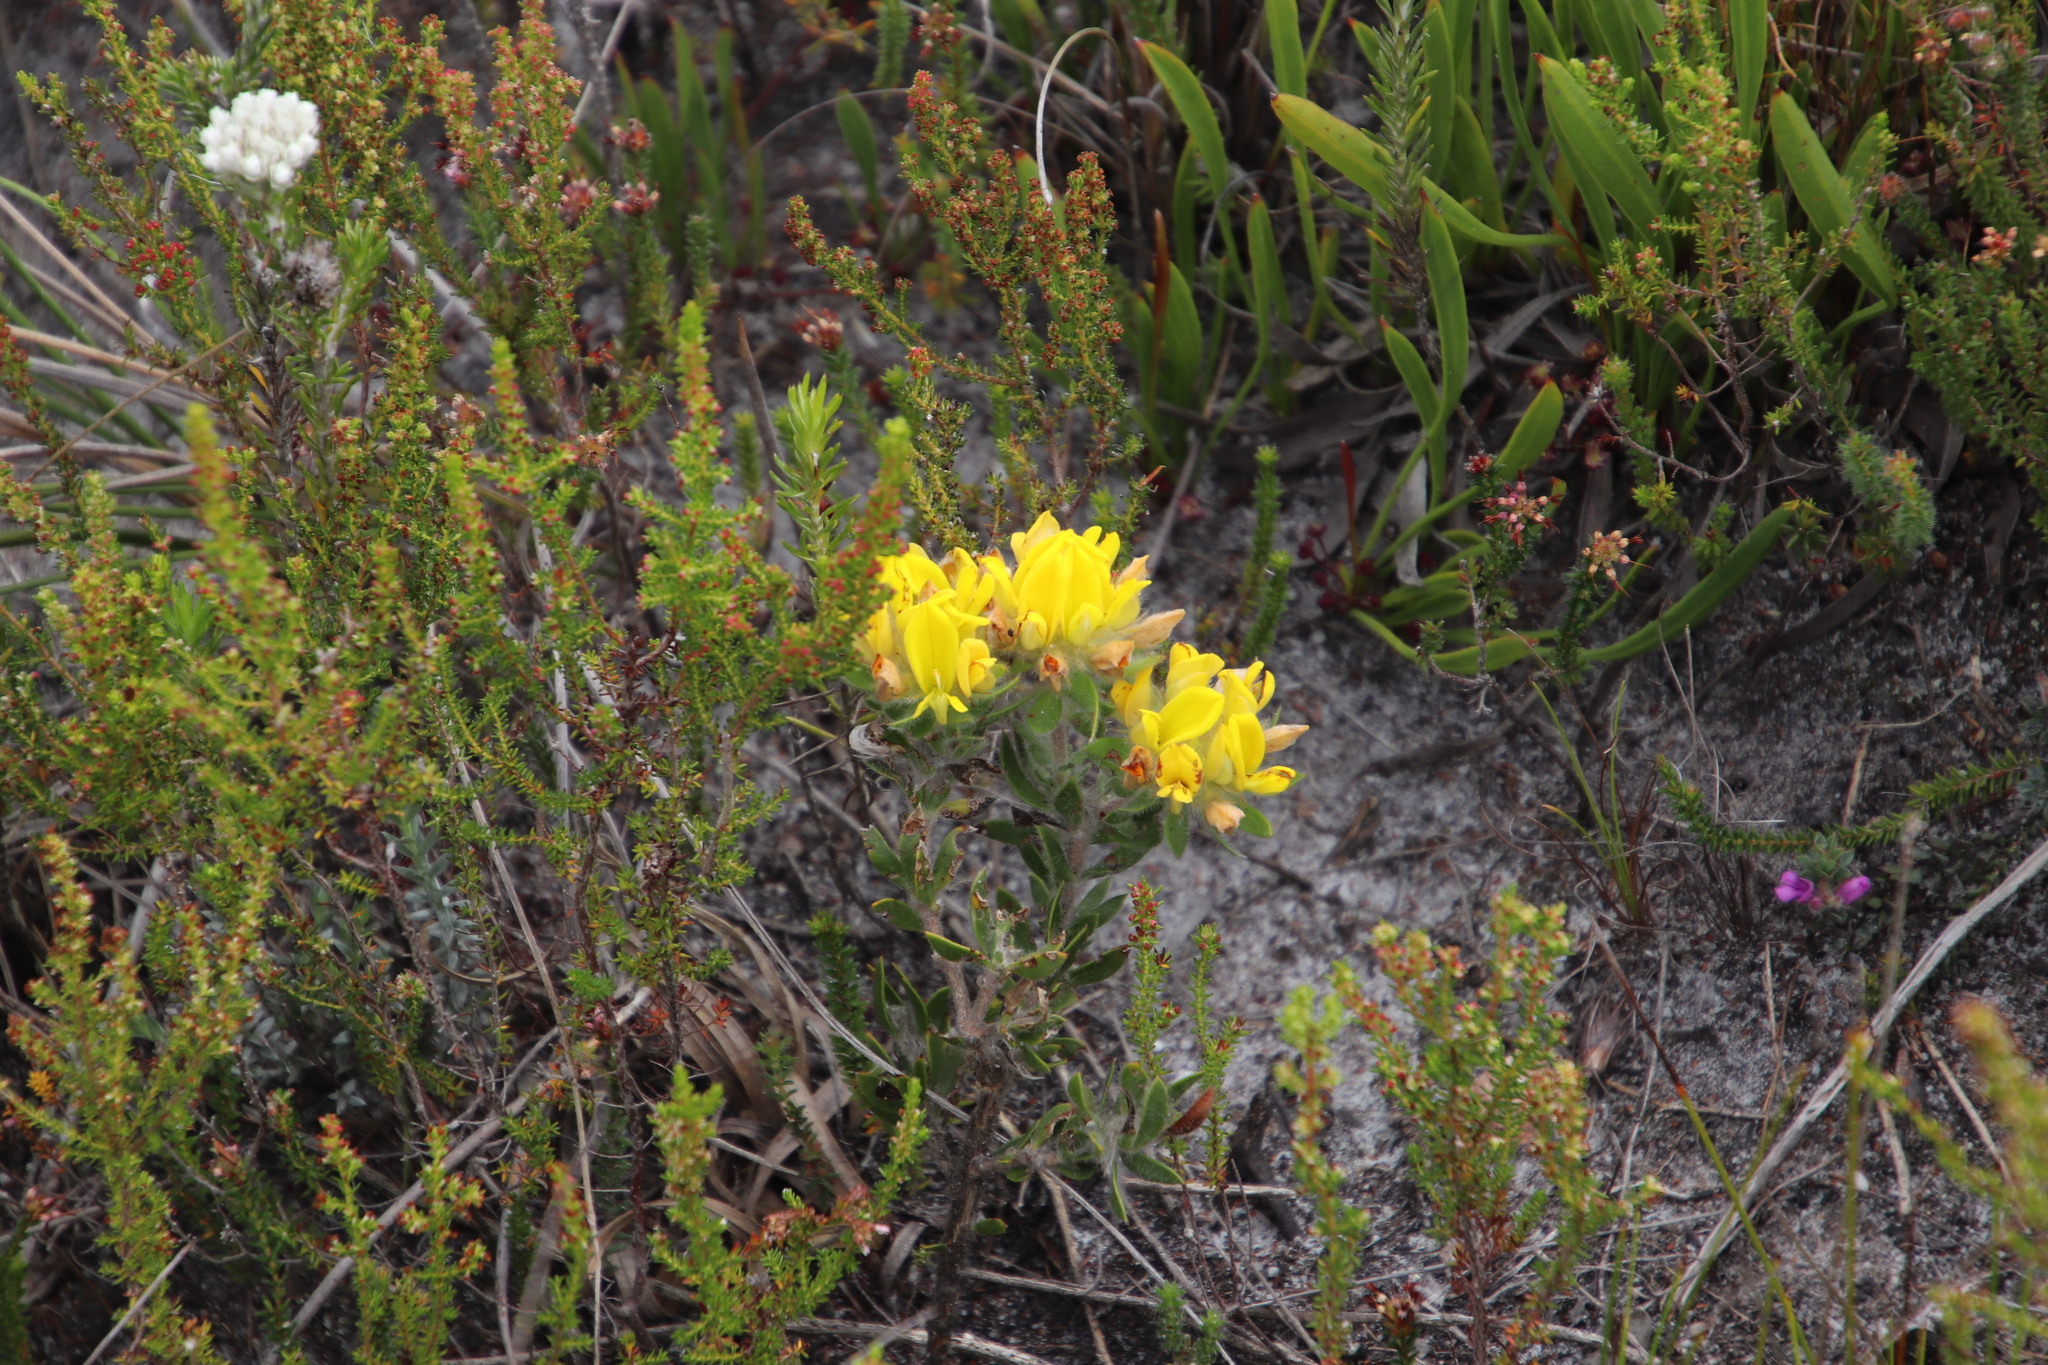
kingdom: Plantae
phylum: Tracheophyta
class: Magnoliopsida
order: Fabales
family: Fabaceae
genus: Aspalathus
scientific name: Aspalathus aspalathoides
